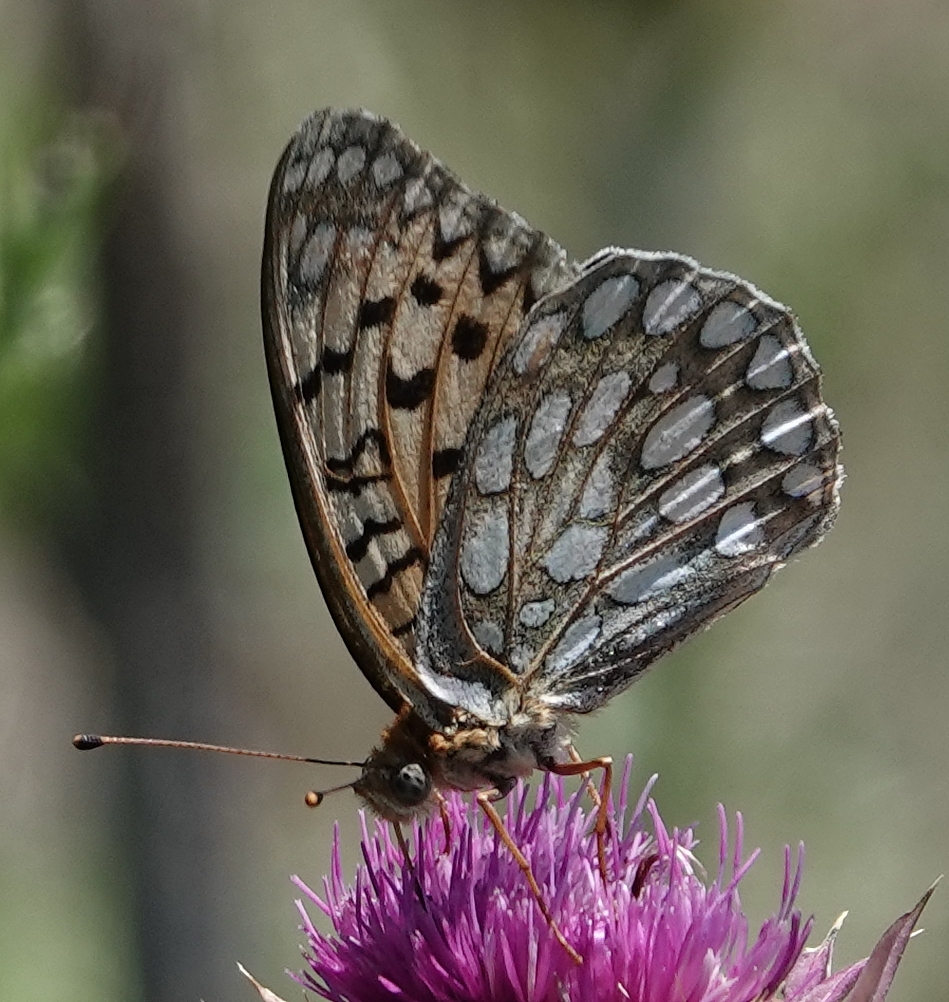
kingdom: Animalia
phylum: Arthropoda
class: Insecta
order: Lepidoptera
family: Nymphalidae
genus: Speyeria
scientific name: Speyeria edwardsii
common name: Edwards' fritillary
